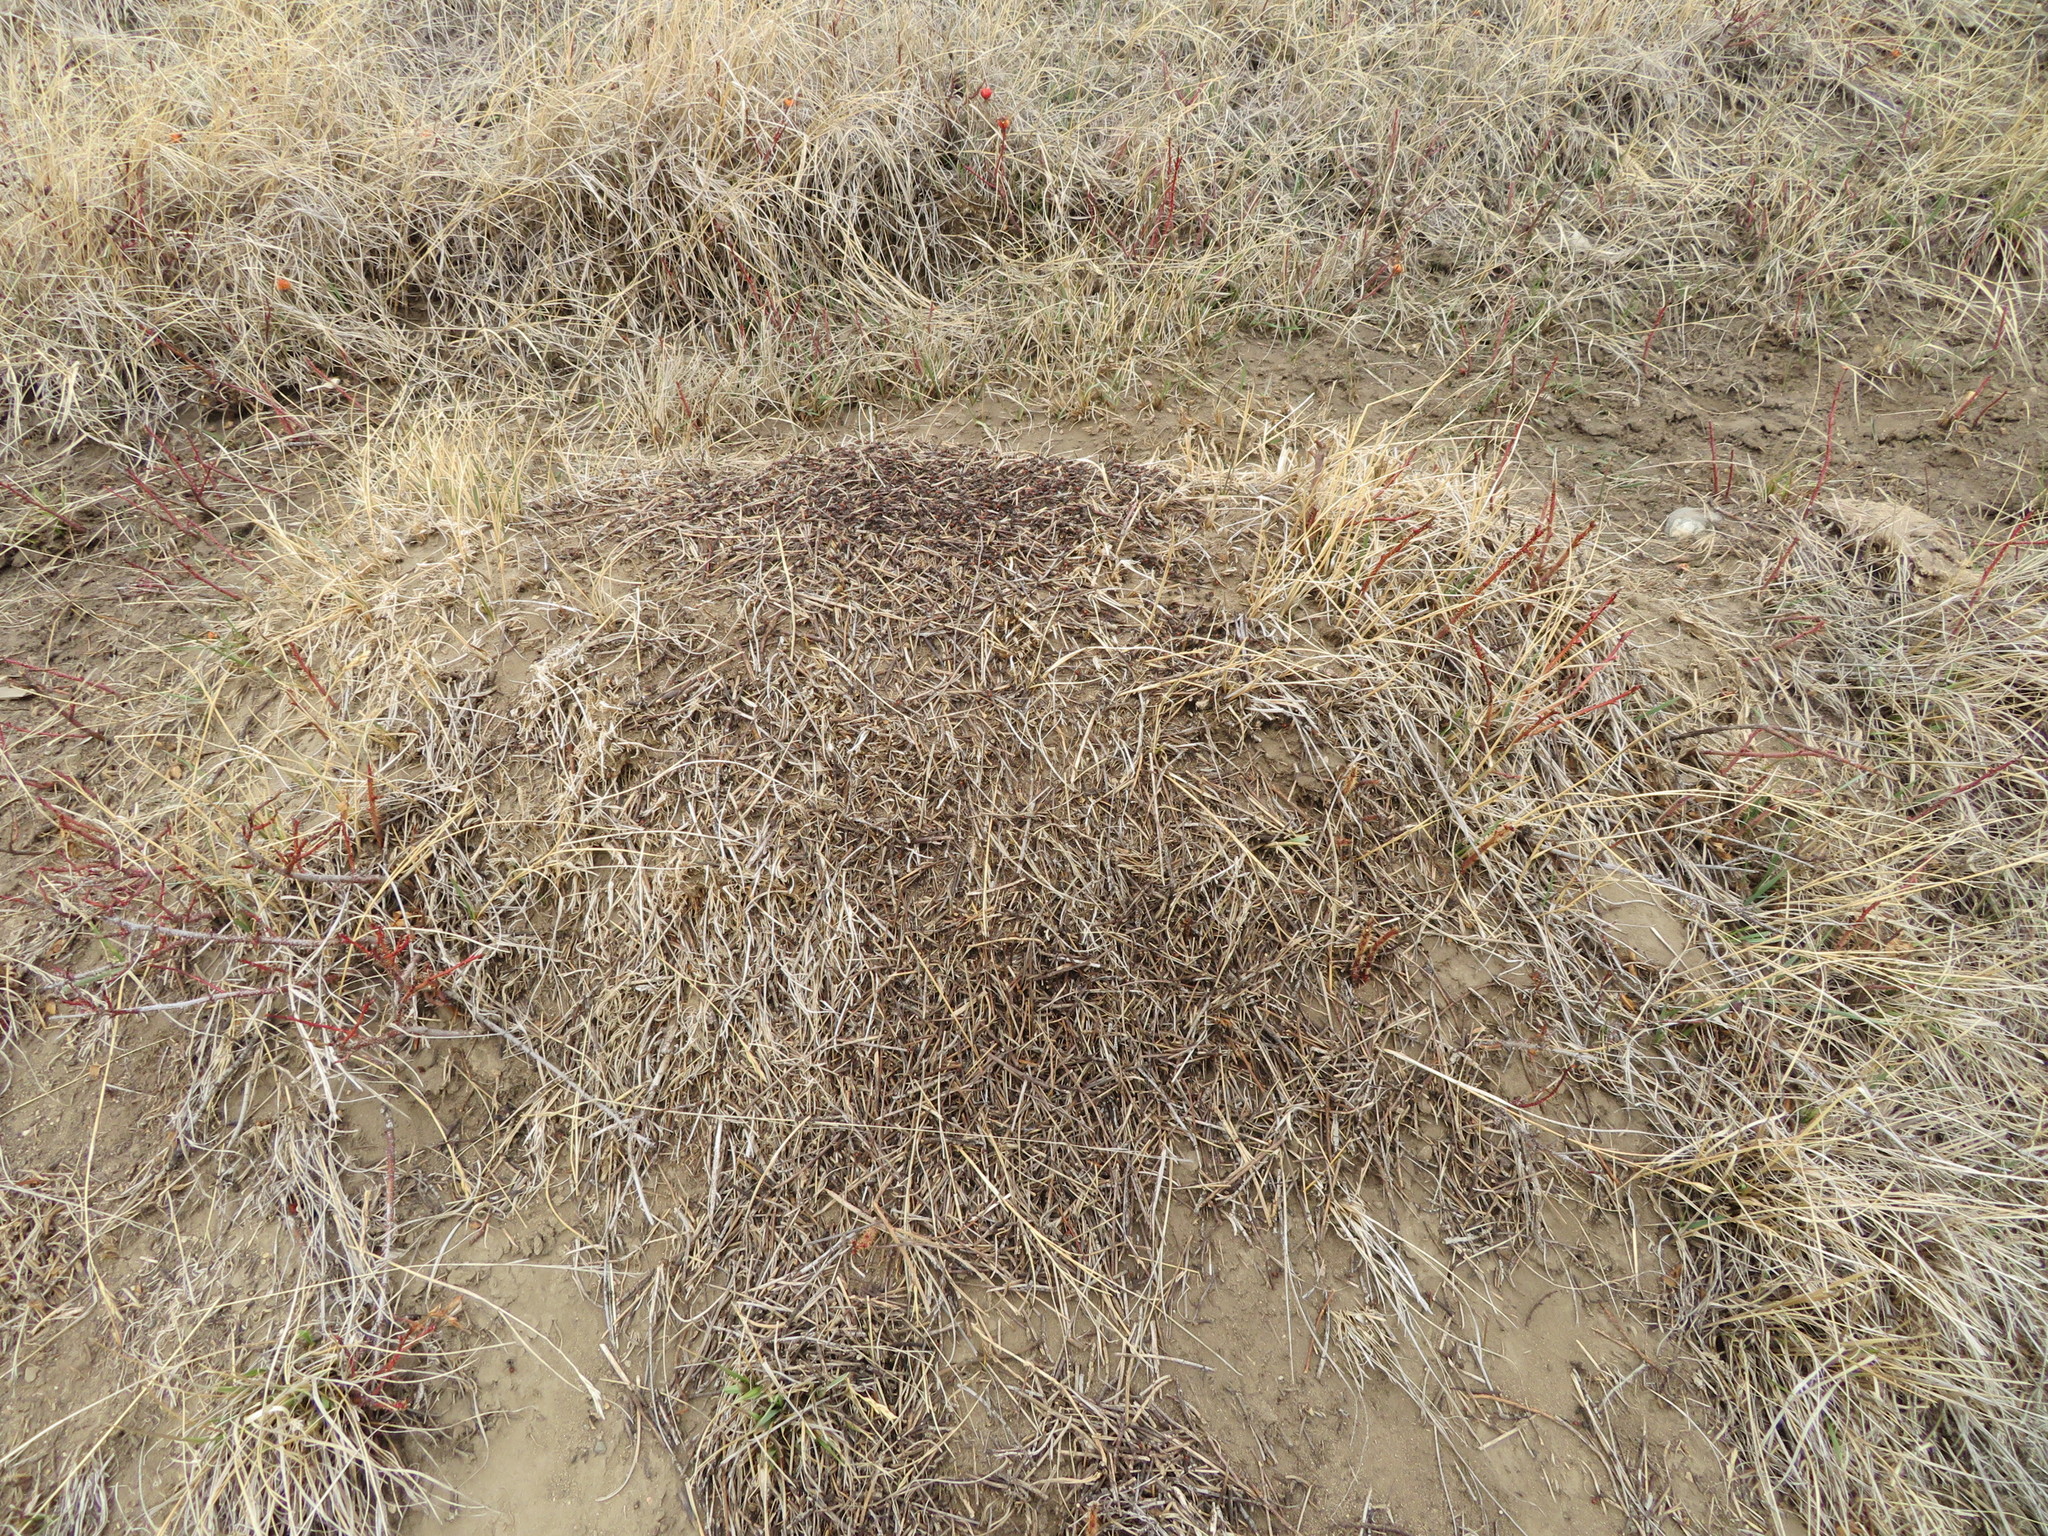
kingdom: Animalia
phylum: Arthropoda
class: Insecta
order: Hymenoptera
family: Formicidae
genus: Formica
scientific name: Formica obscuripes
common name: Western thatching ant
